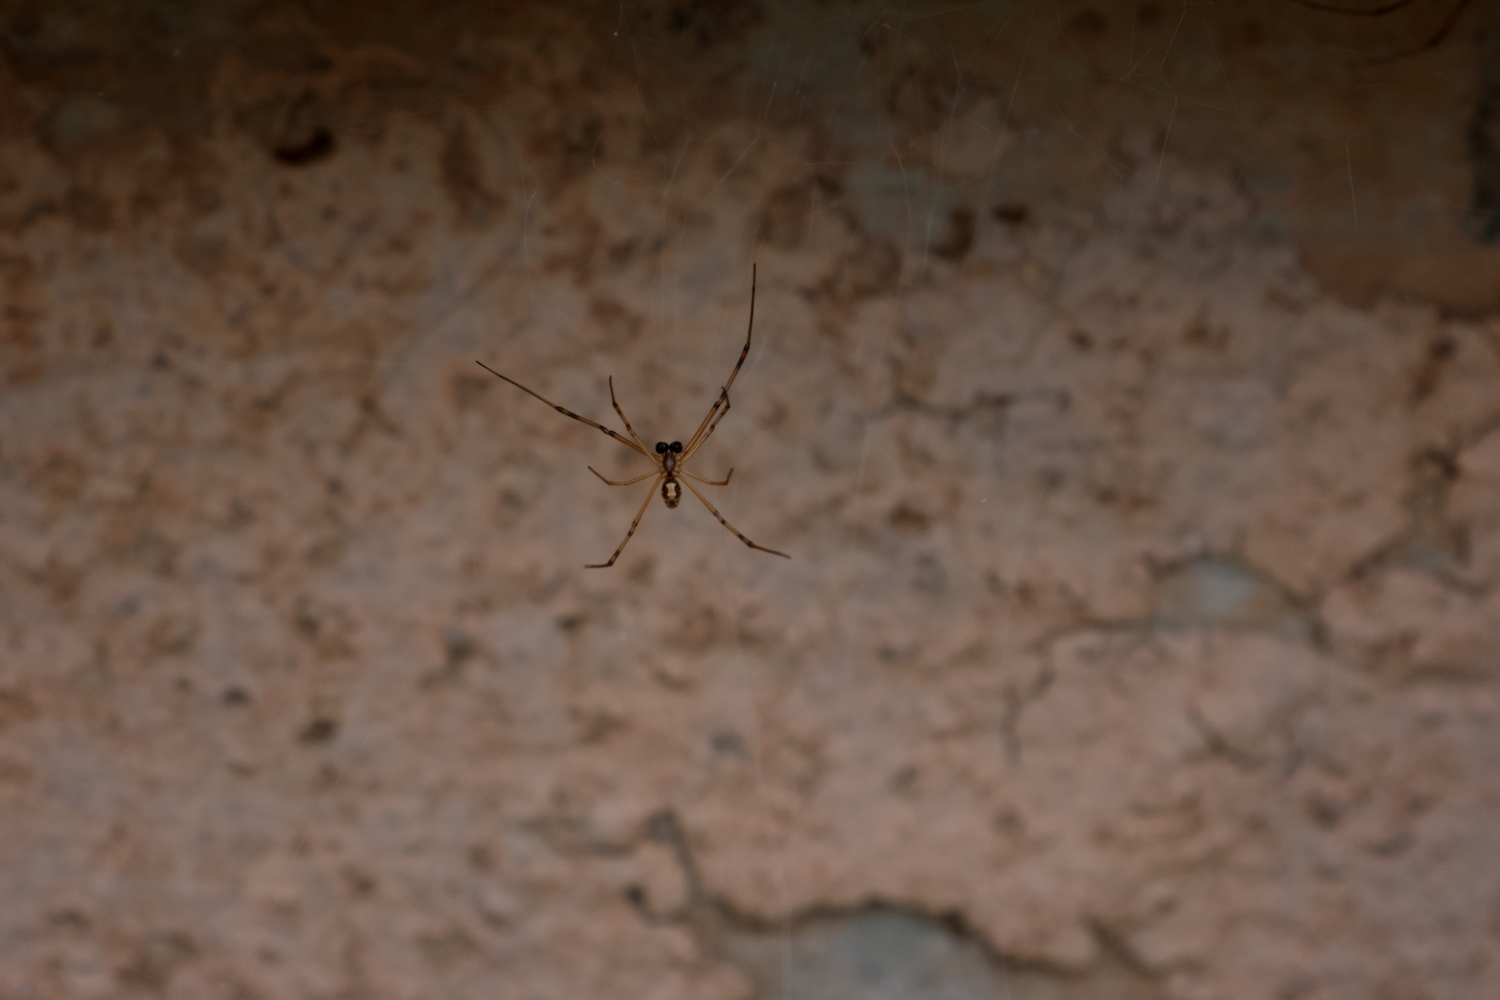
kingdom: Animalia
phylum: Arthropoda
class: Arachnida
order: Araneae
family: Theridiidae
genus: Latrodectus
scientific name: Latrodectus hesperus
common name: Western black widow
